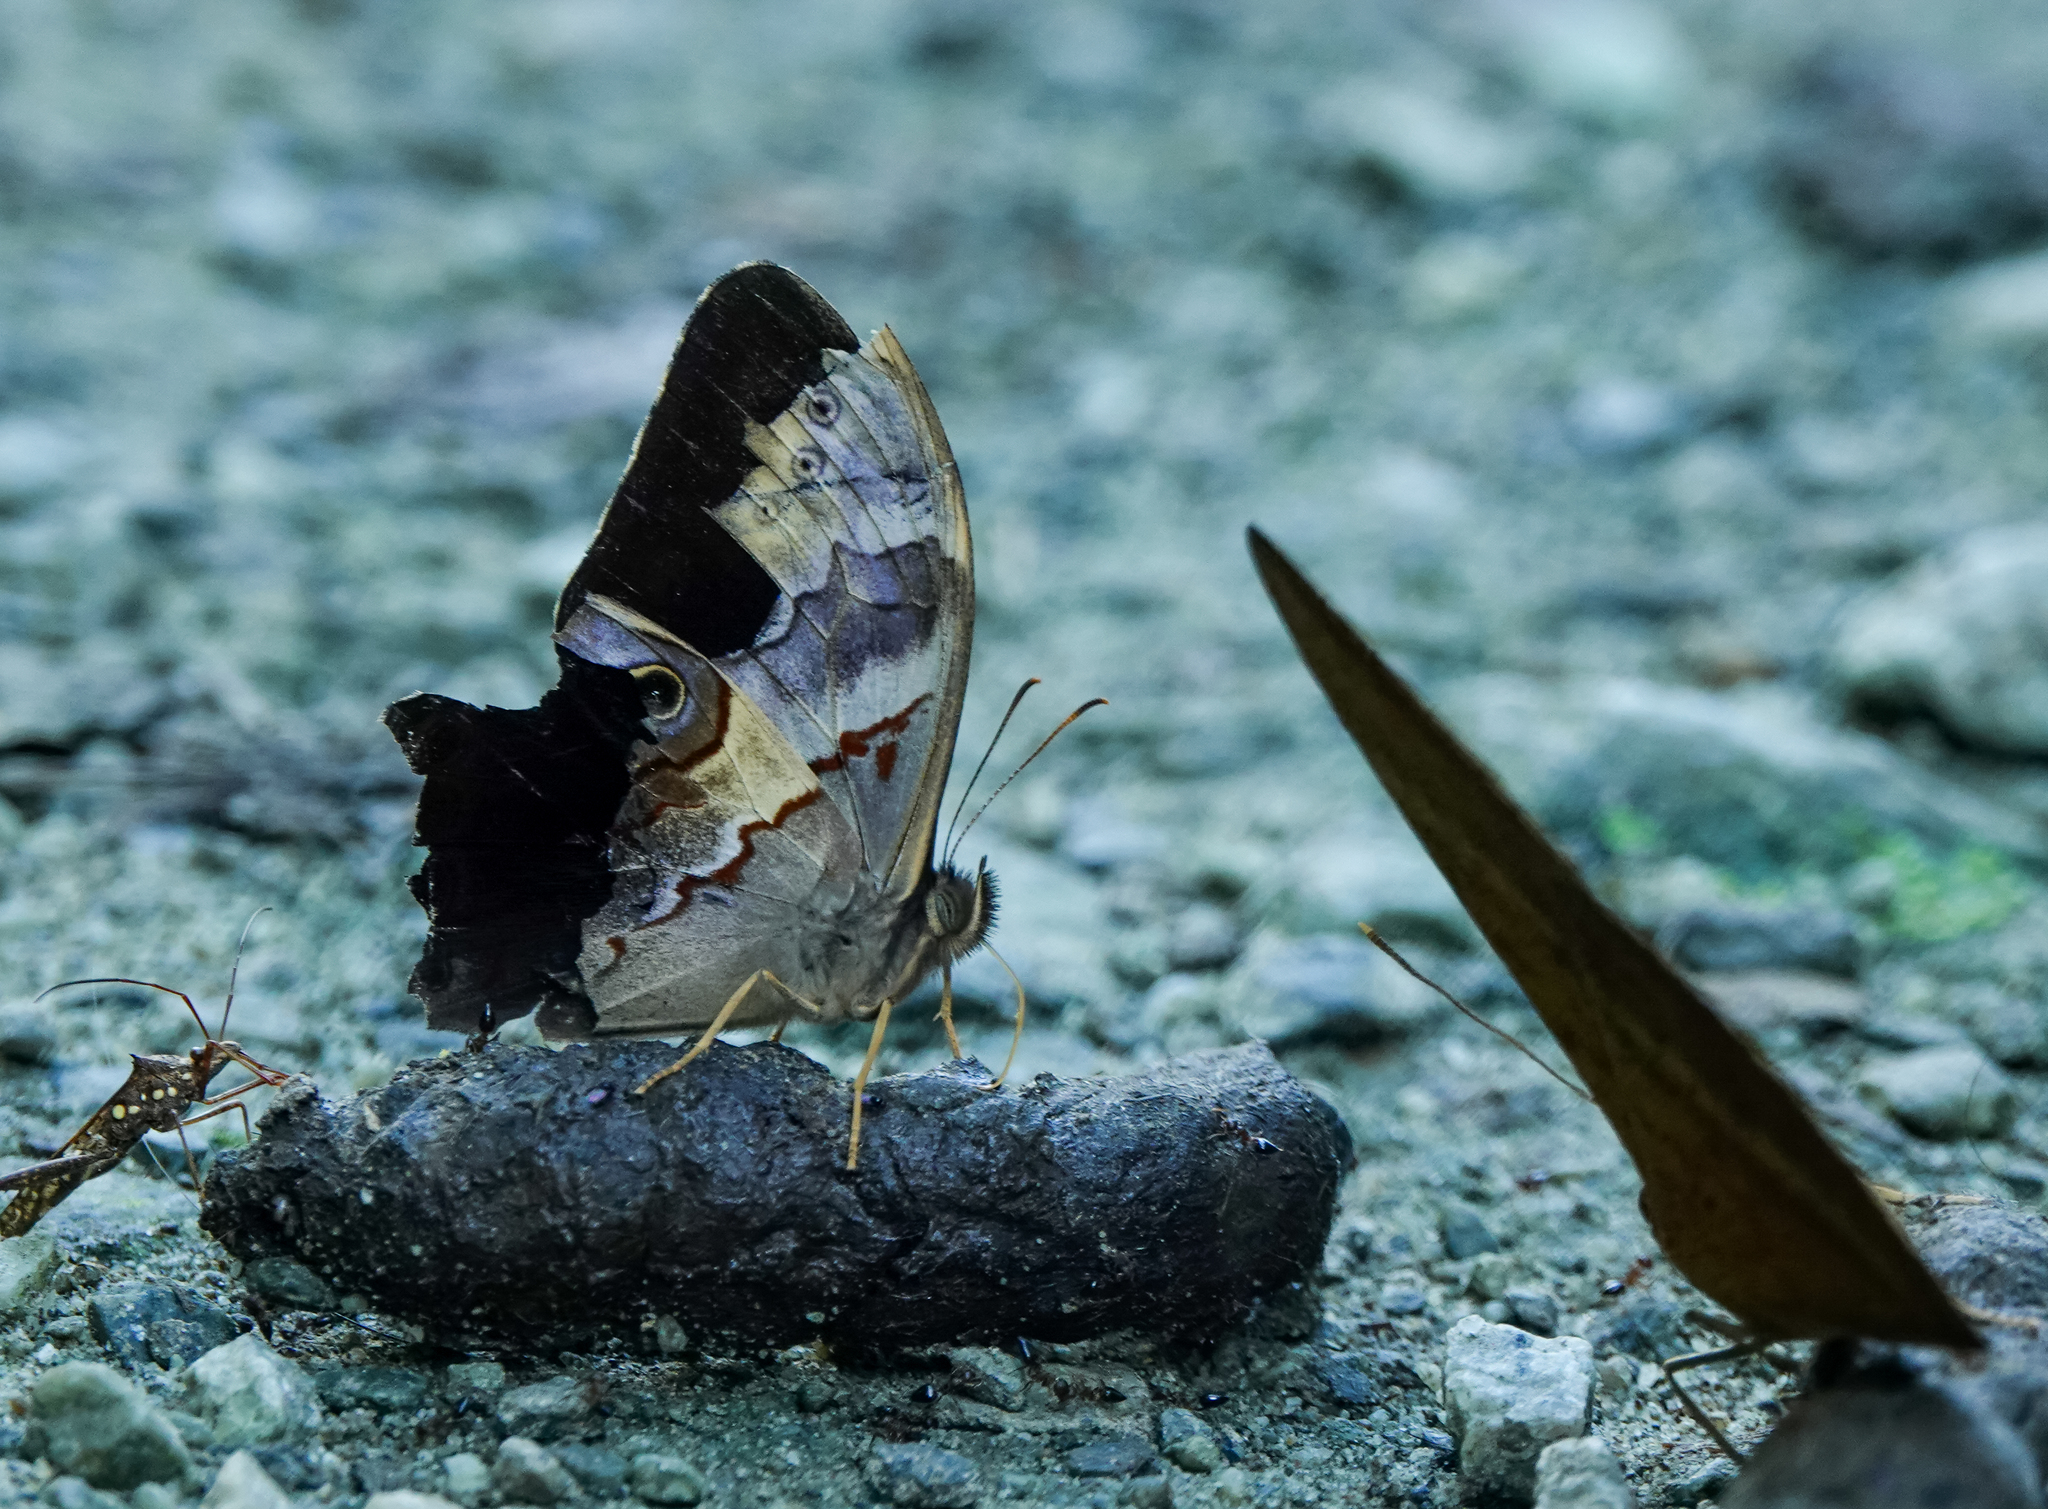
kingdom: Animalia
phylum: Arthropoda
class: Insecta
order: Lepidoptera
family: Nymphalidae
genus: Lethe
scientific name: Lethe chandica
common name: Angled red forester
